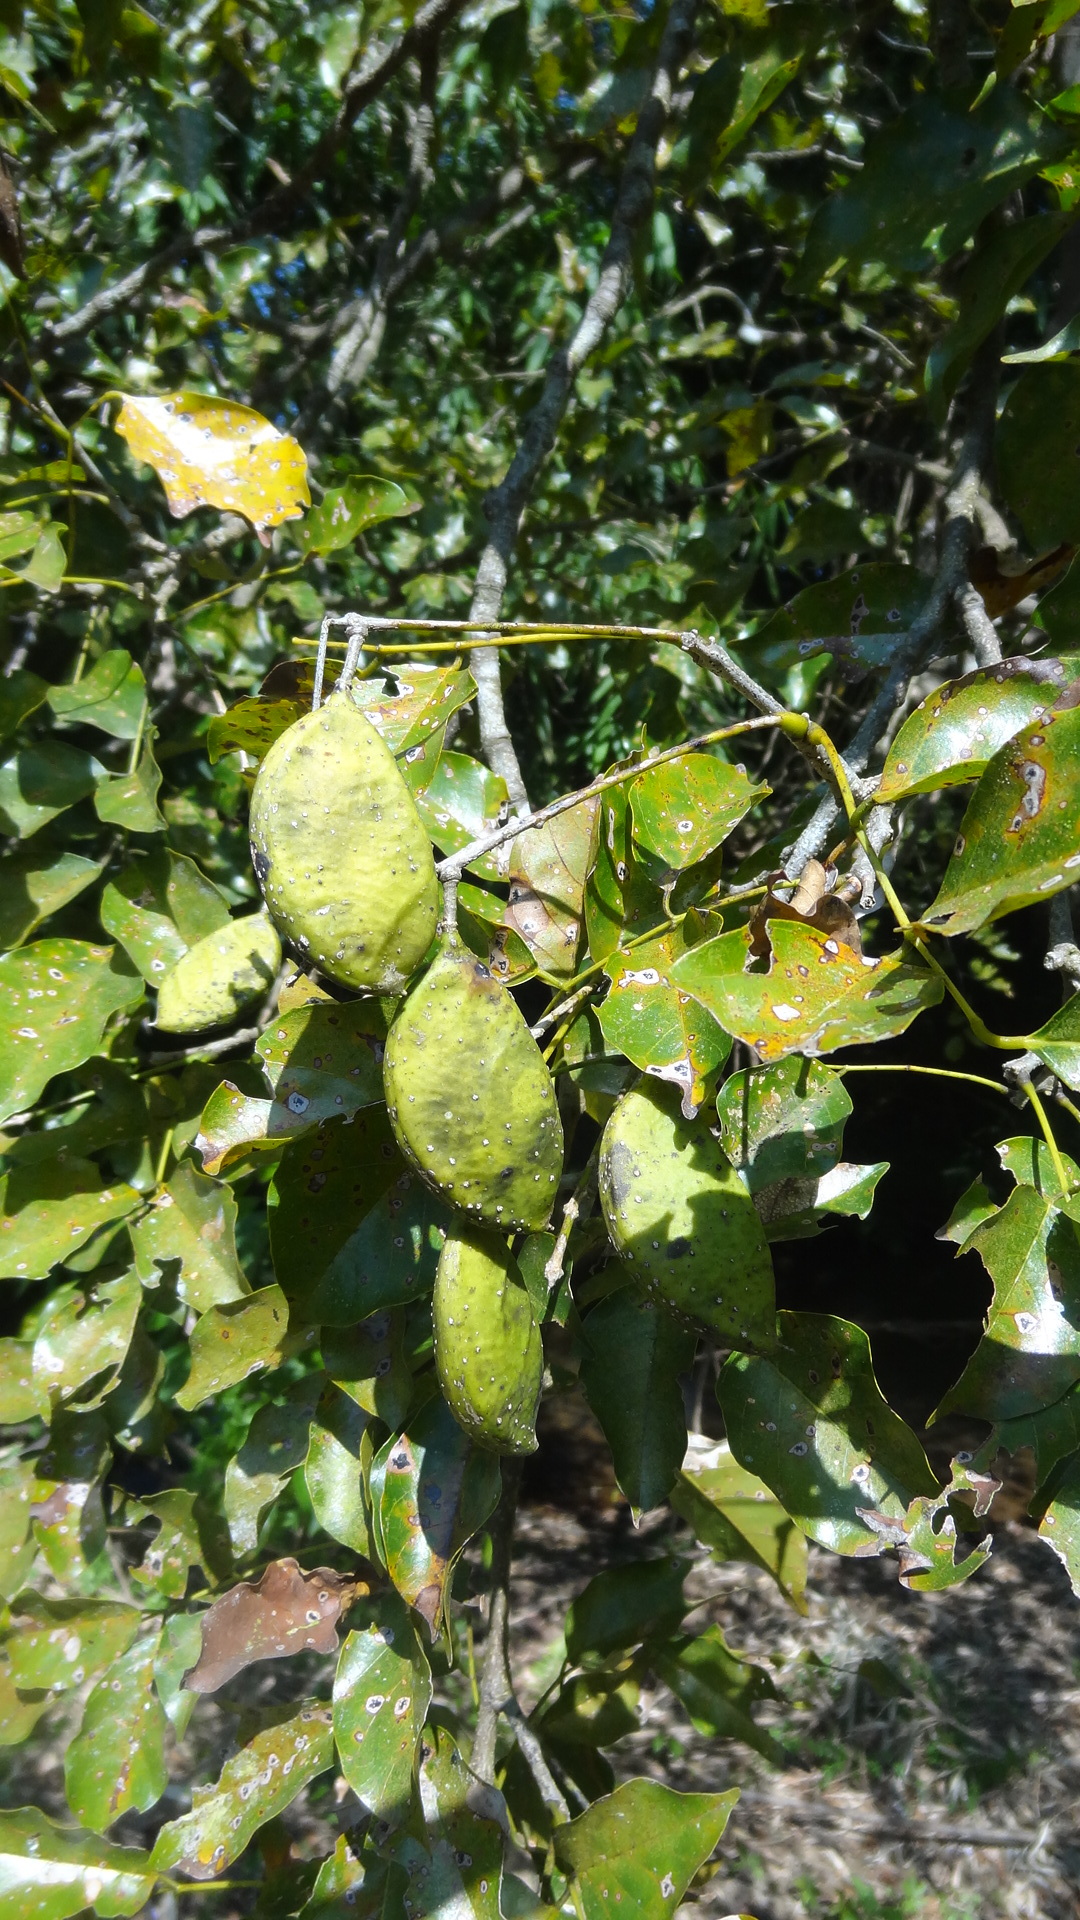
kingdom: Plantae
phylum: Tracheophyta
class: Magnoliopsida
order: Fabales
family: Fabaceae
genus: Pongamia
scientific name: Pongamia pinnata
